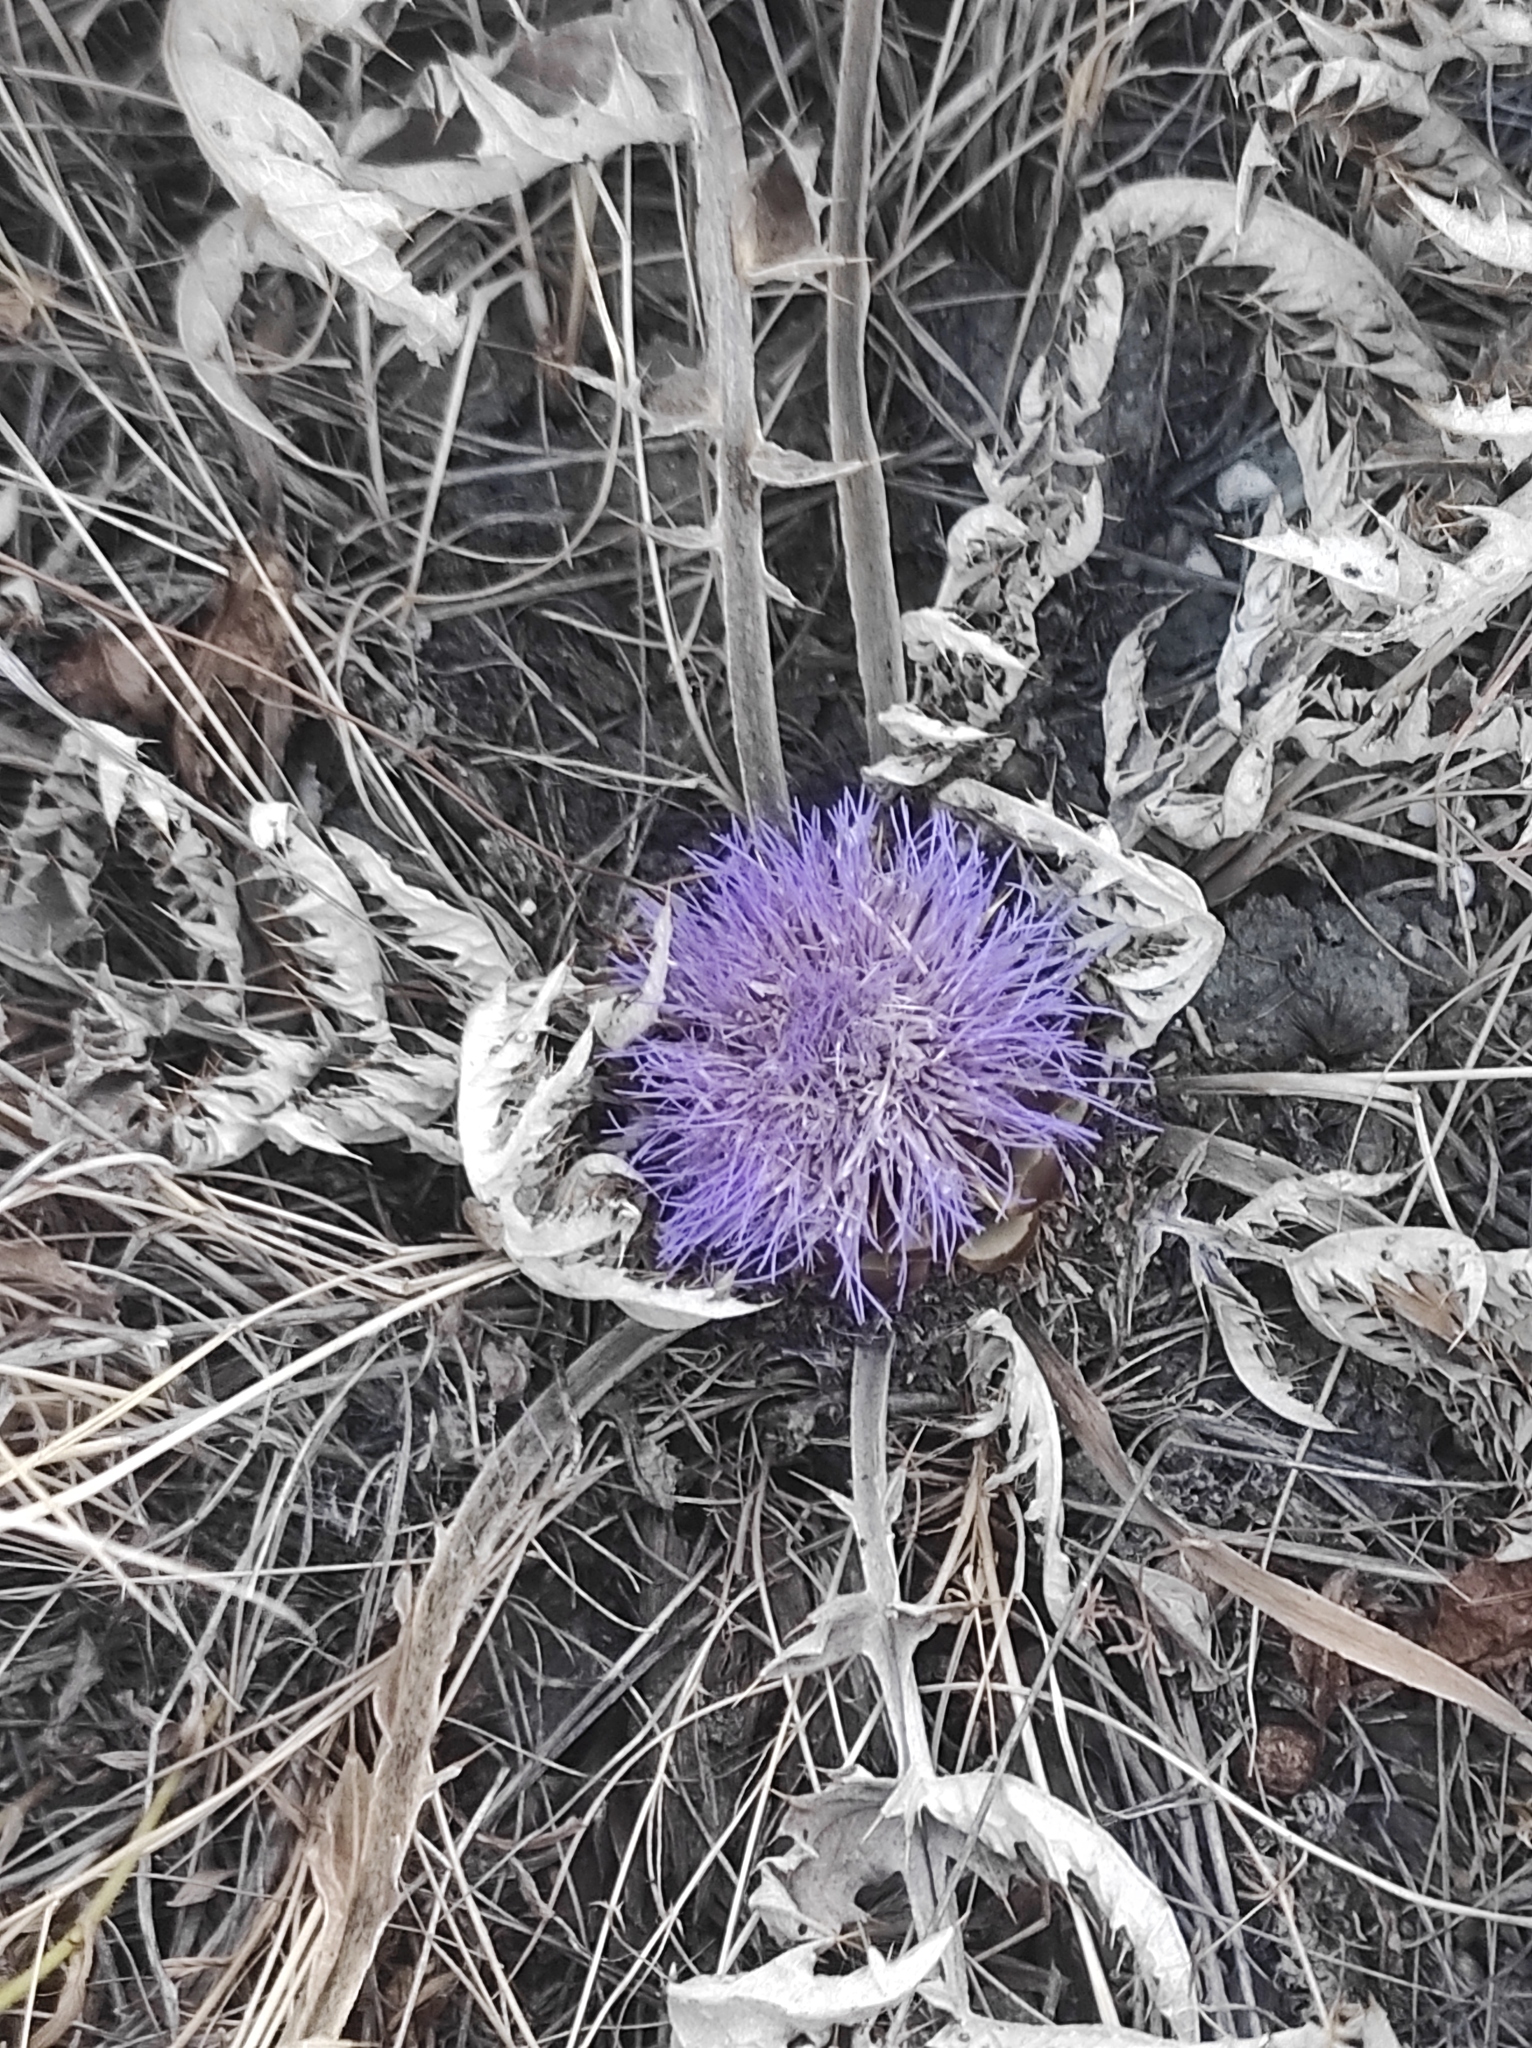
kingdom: Plantae
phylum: Tracheophyta
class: Magnoliopsida
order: Asterales
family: Asteraceae
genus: Cynara
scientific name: Cynara tournefortii
